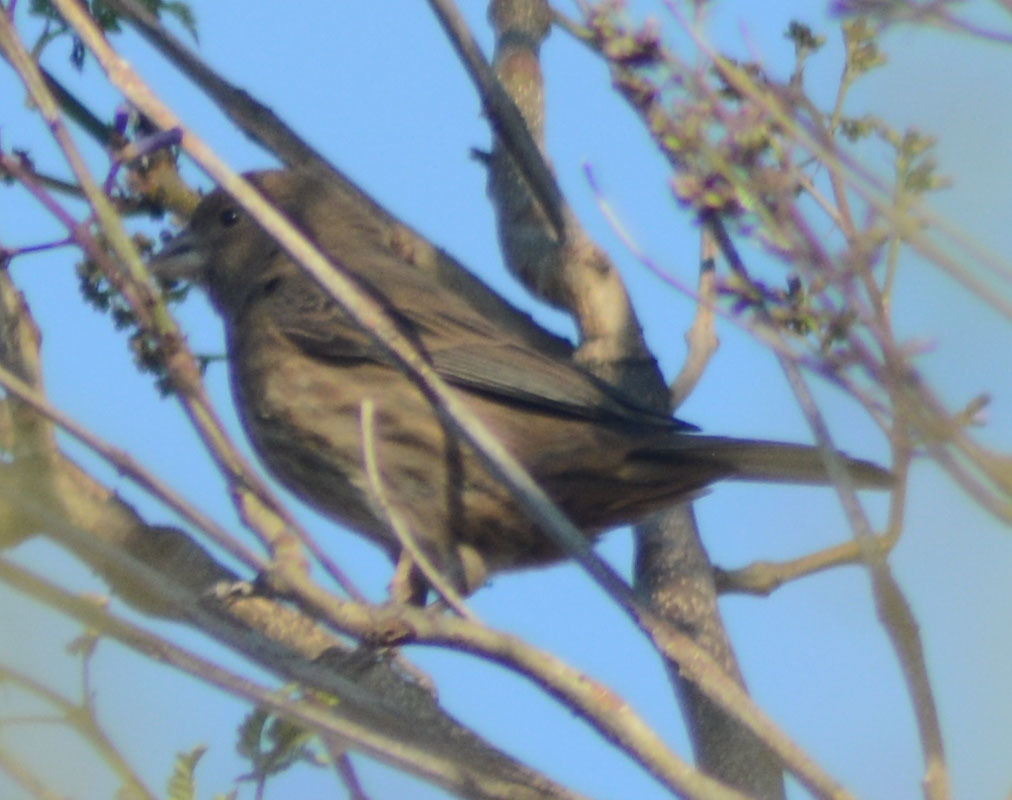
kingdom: Animalia
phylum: Chordata
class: Aves
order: Passeriformes
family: Fringillidae
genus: Haemorhous
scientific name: Haemorhous mexicanus
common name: House finch
